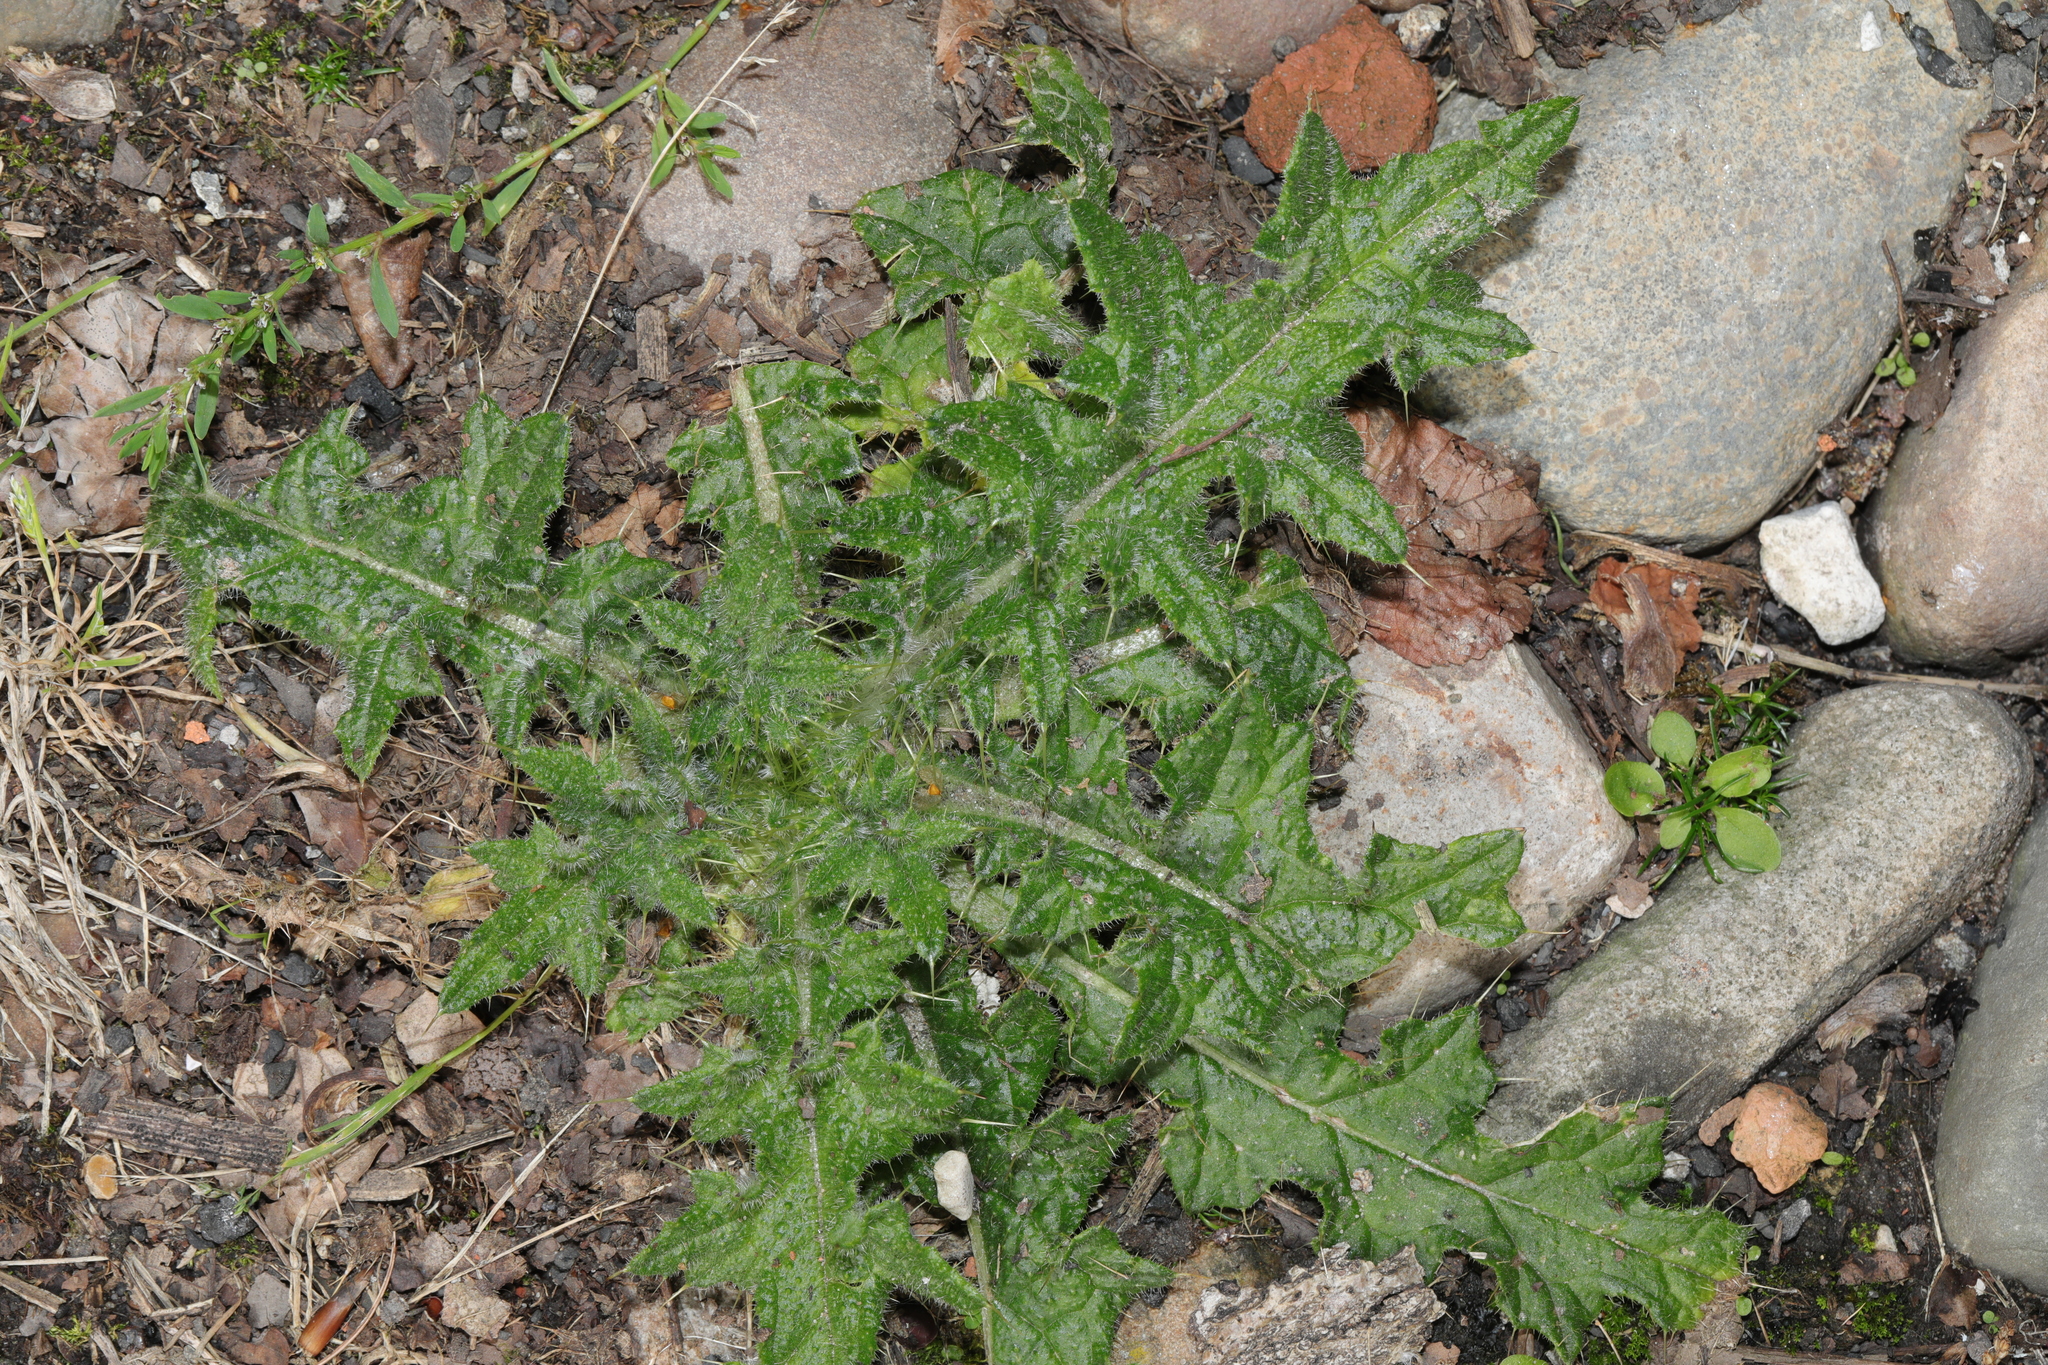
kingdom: Plantae
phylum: Tracheophyta
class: Magnoliopsida
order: Asterales
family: Asteraceae
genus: Cirsium
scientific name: Cirsium vulgare
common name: Bull thistle
